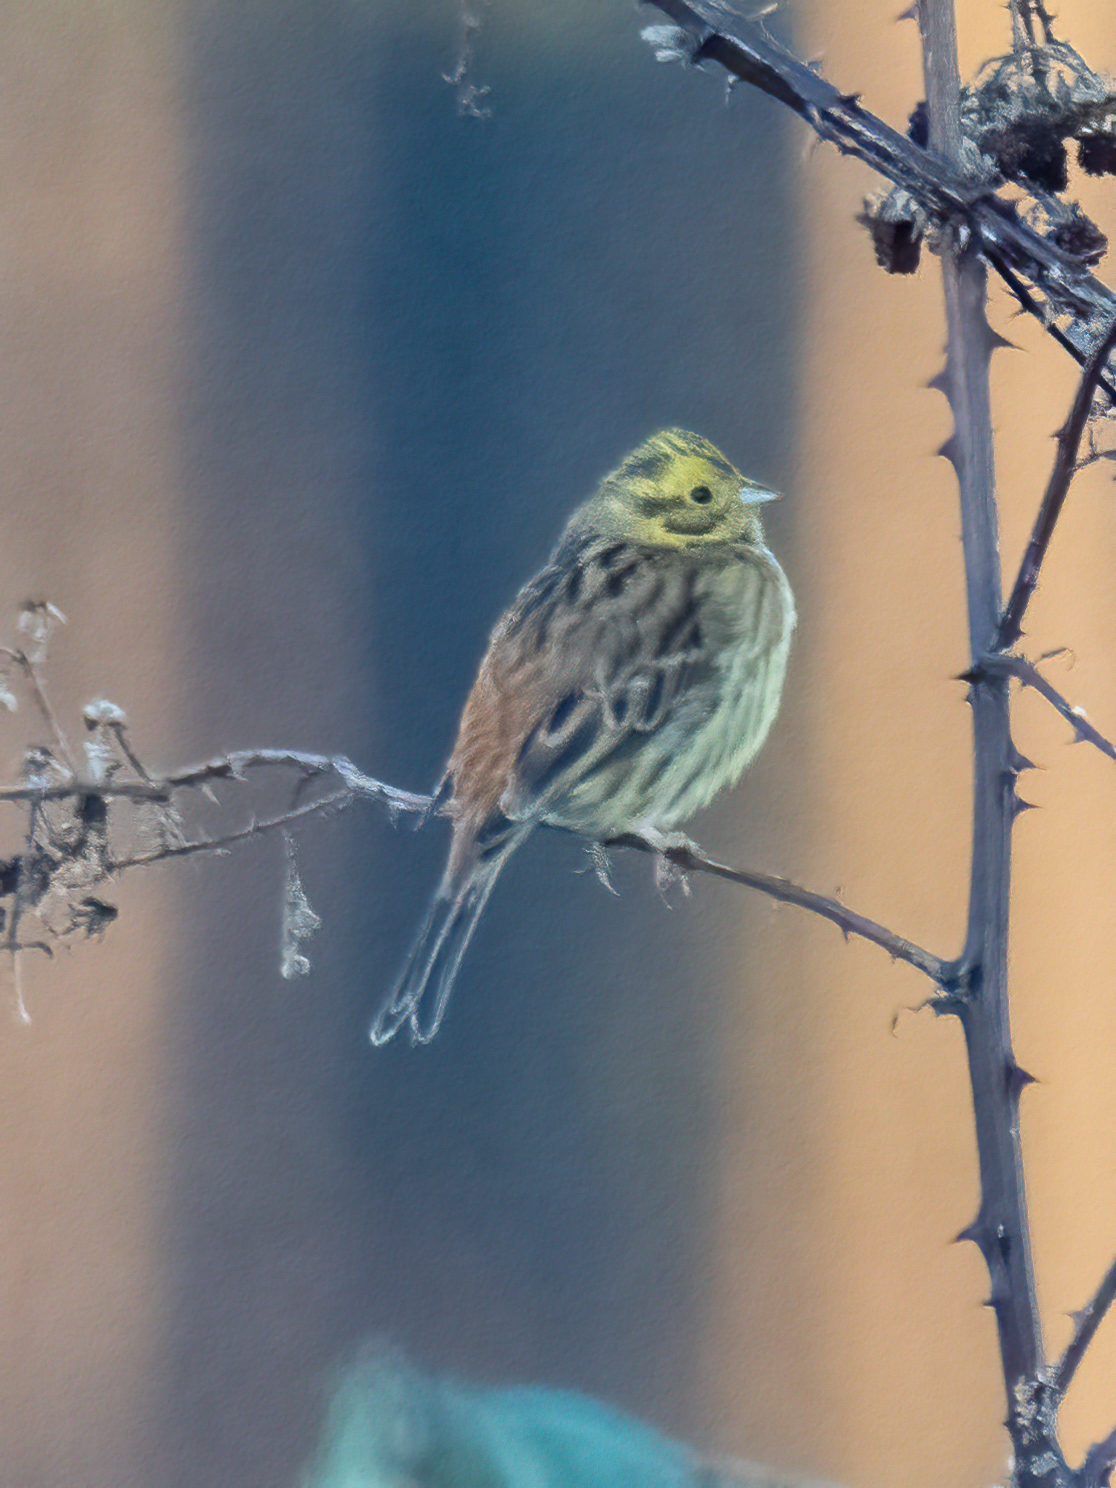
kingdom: Animalia
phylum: Chordata
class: Aves
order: Passeriformes
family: Emberizidae
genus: Emberiza
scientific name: Emberiza citrinella
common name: Yellowhammer
